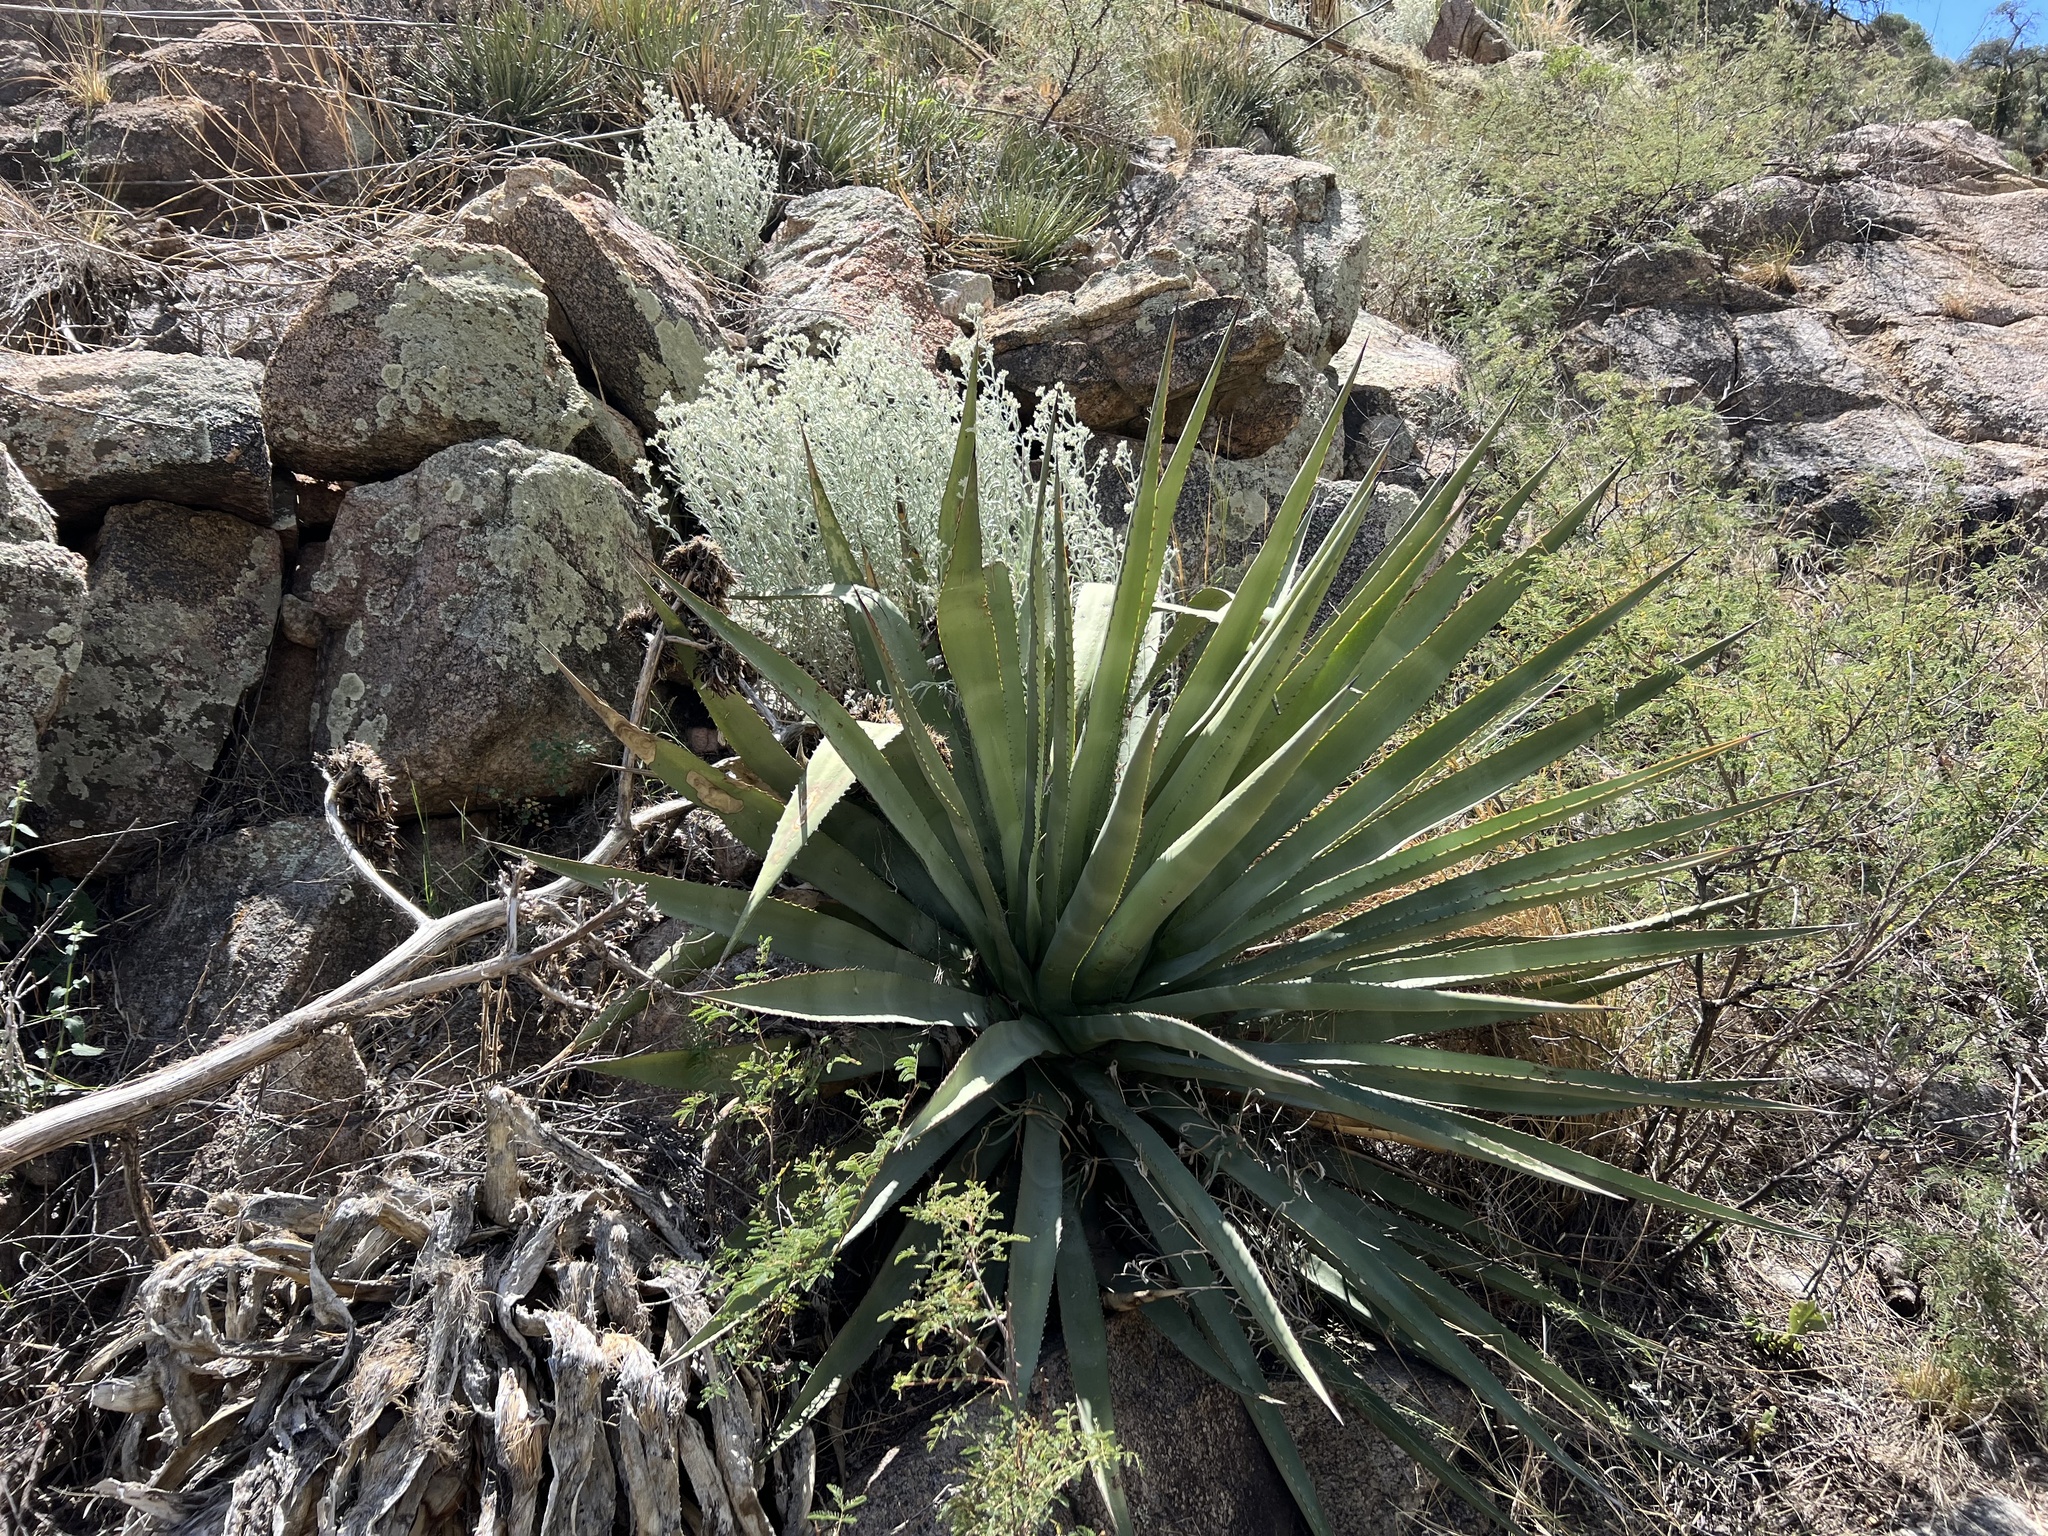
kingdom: Plantae
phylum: Tracheophyta
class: Liliopsida
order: Asparagales
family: Asparagaceae
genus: Agave
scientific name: Agave palmeri
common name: Palmer agave
